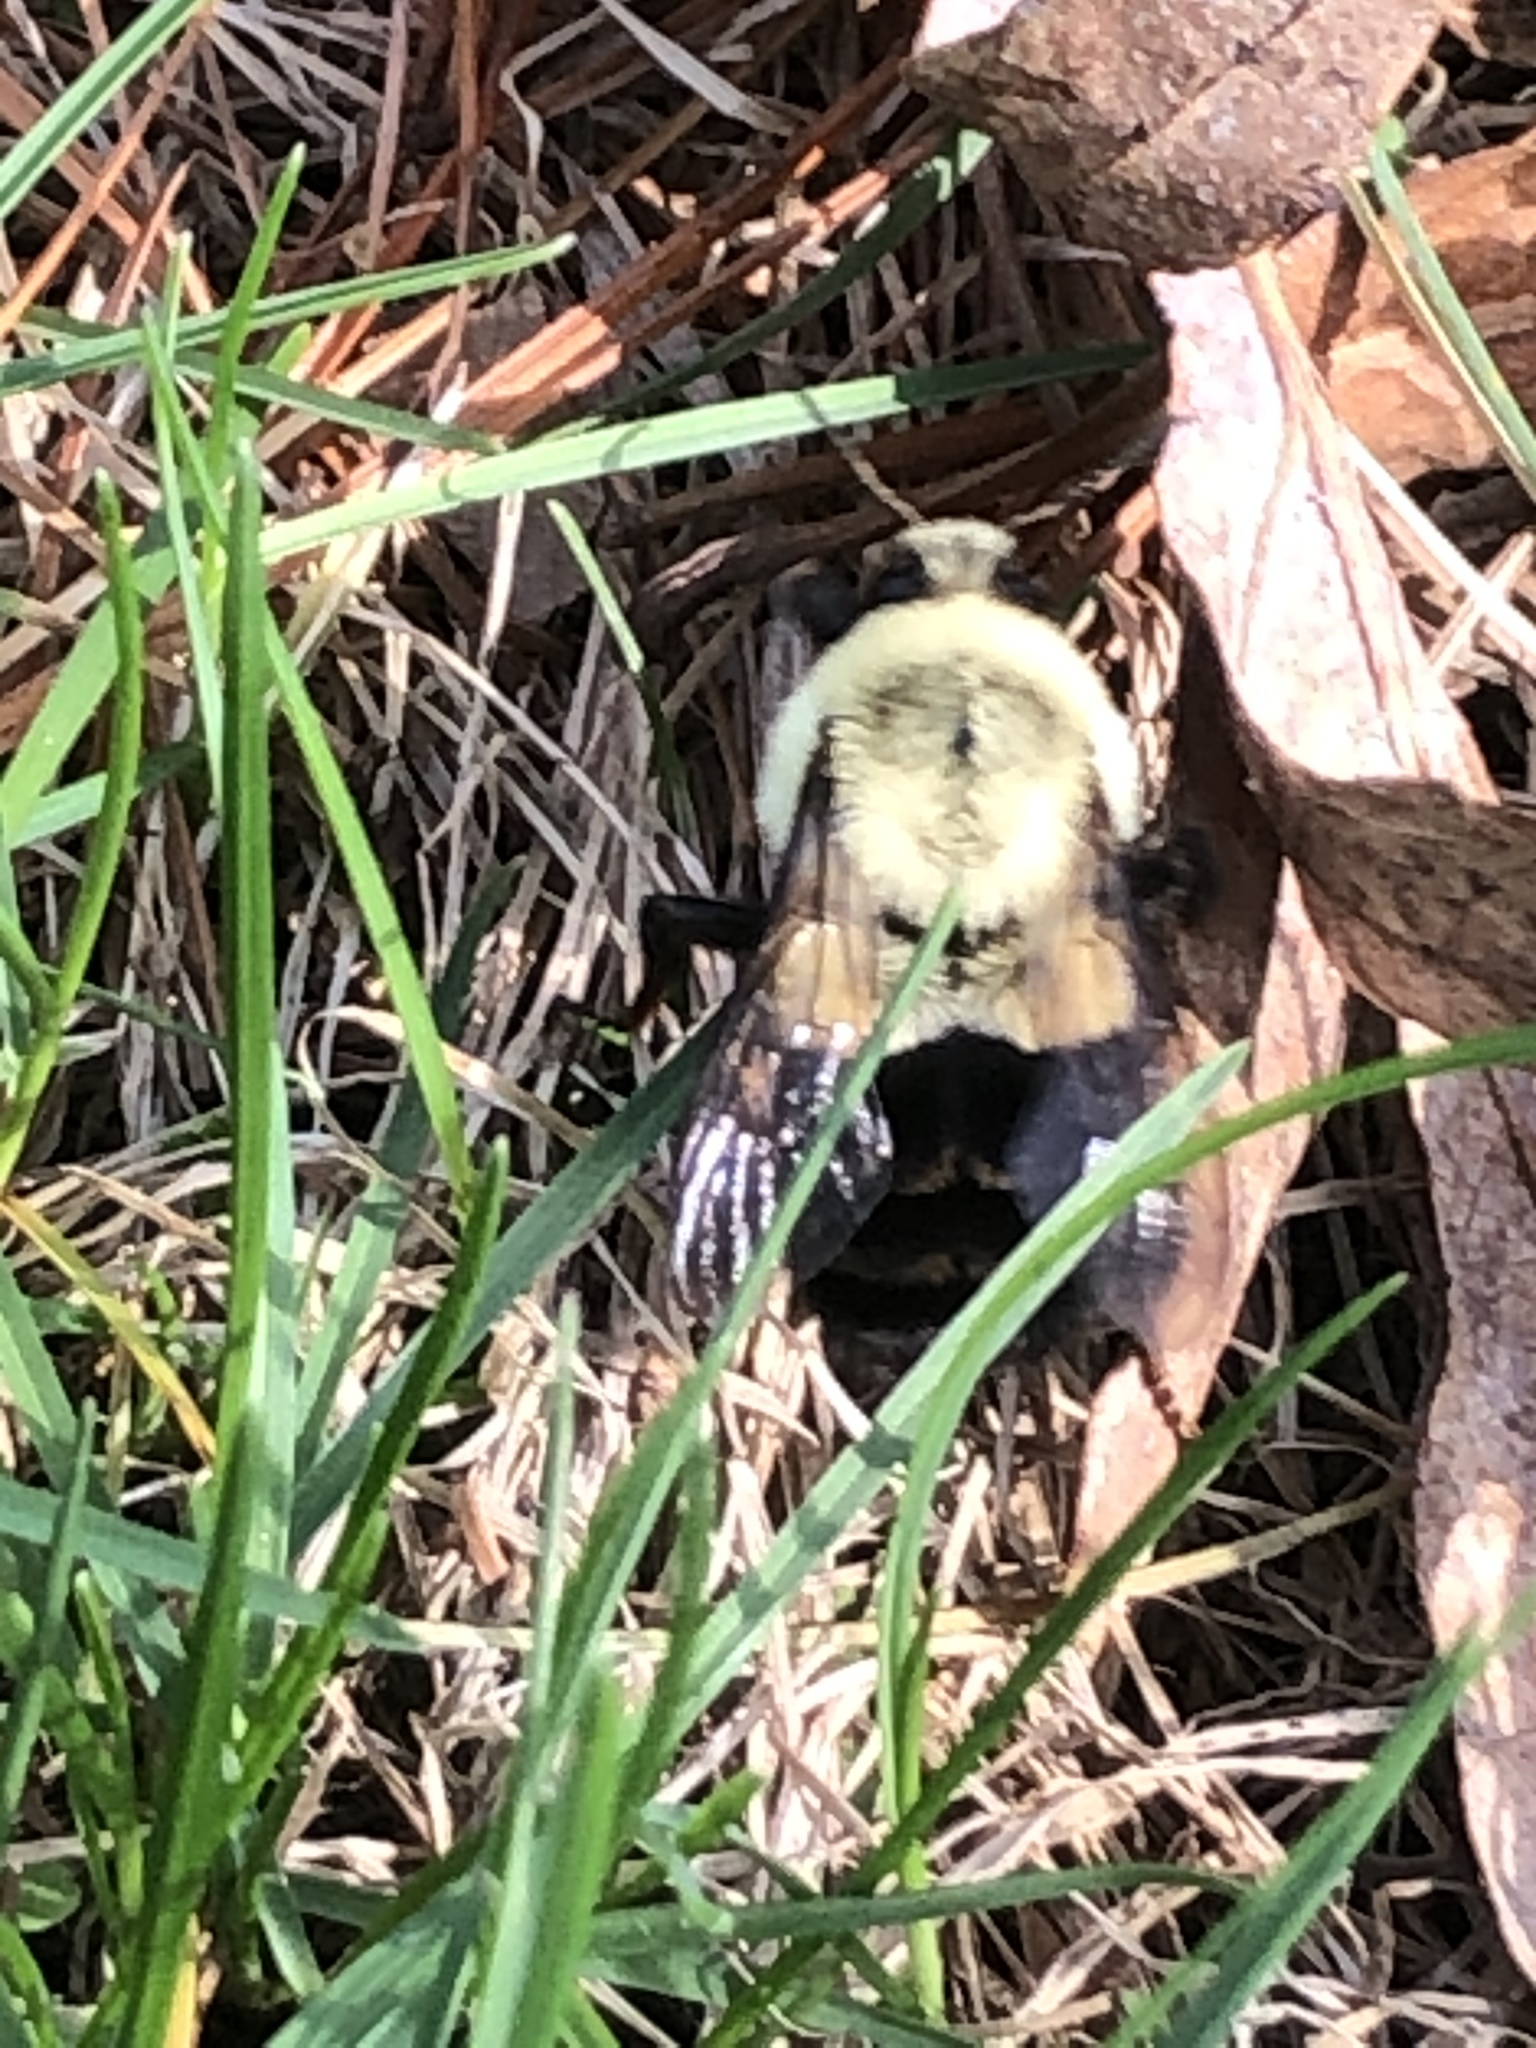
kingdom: Animalia
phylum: Arthropoda
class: Insecta
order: Hymenoptera
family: Apidae
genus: Bombus
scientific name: Bombus impatiens
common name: Common eastern bumble bee
